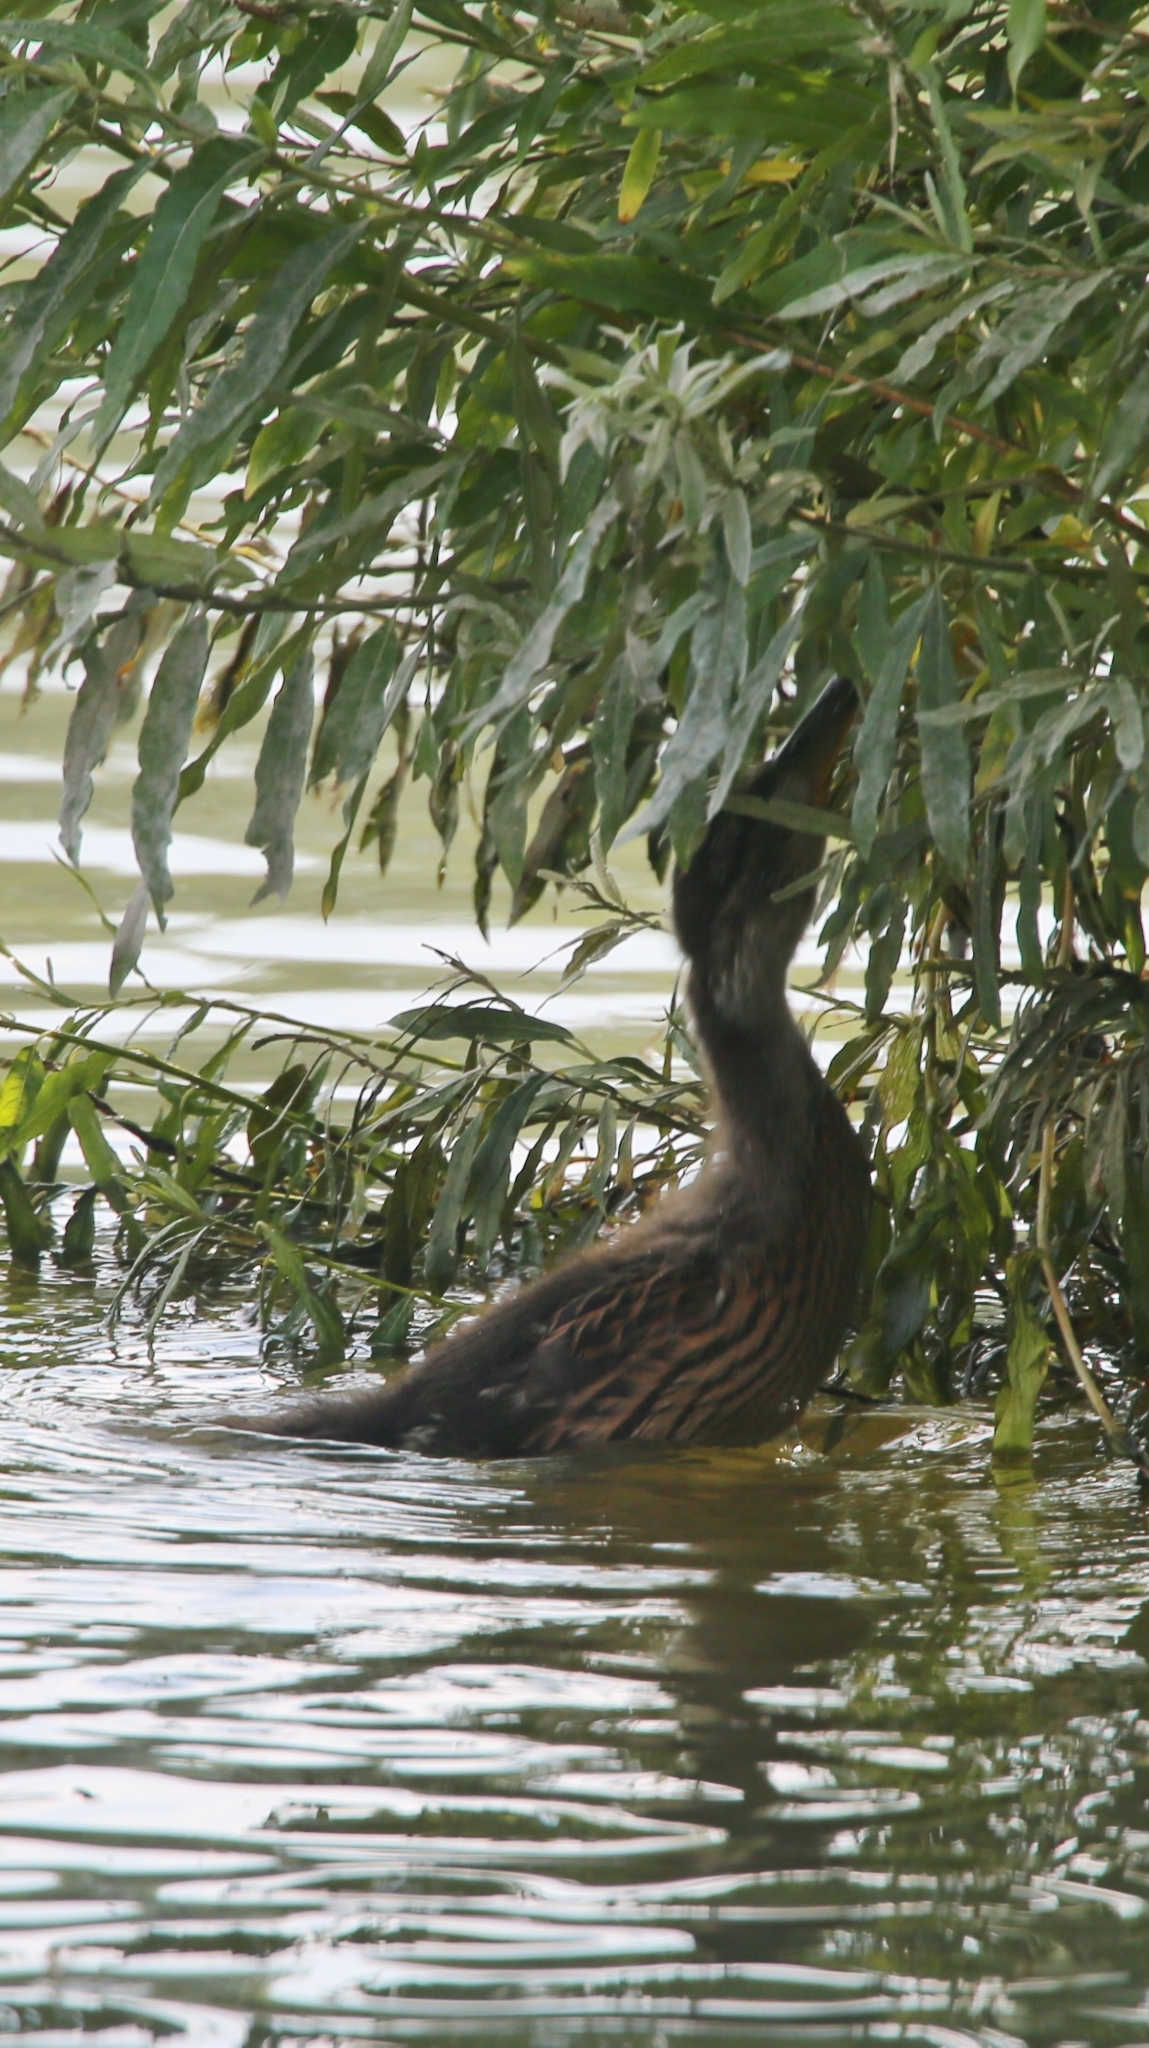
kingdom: Animalia
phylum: Chordata
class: Aves
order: Anseriformes
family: Anatidae
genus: Anas
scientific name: Anas platyrhynchos
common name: Mallard
